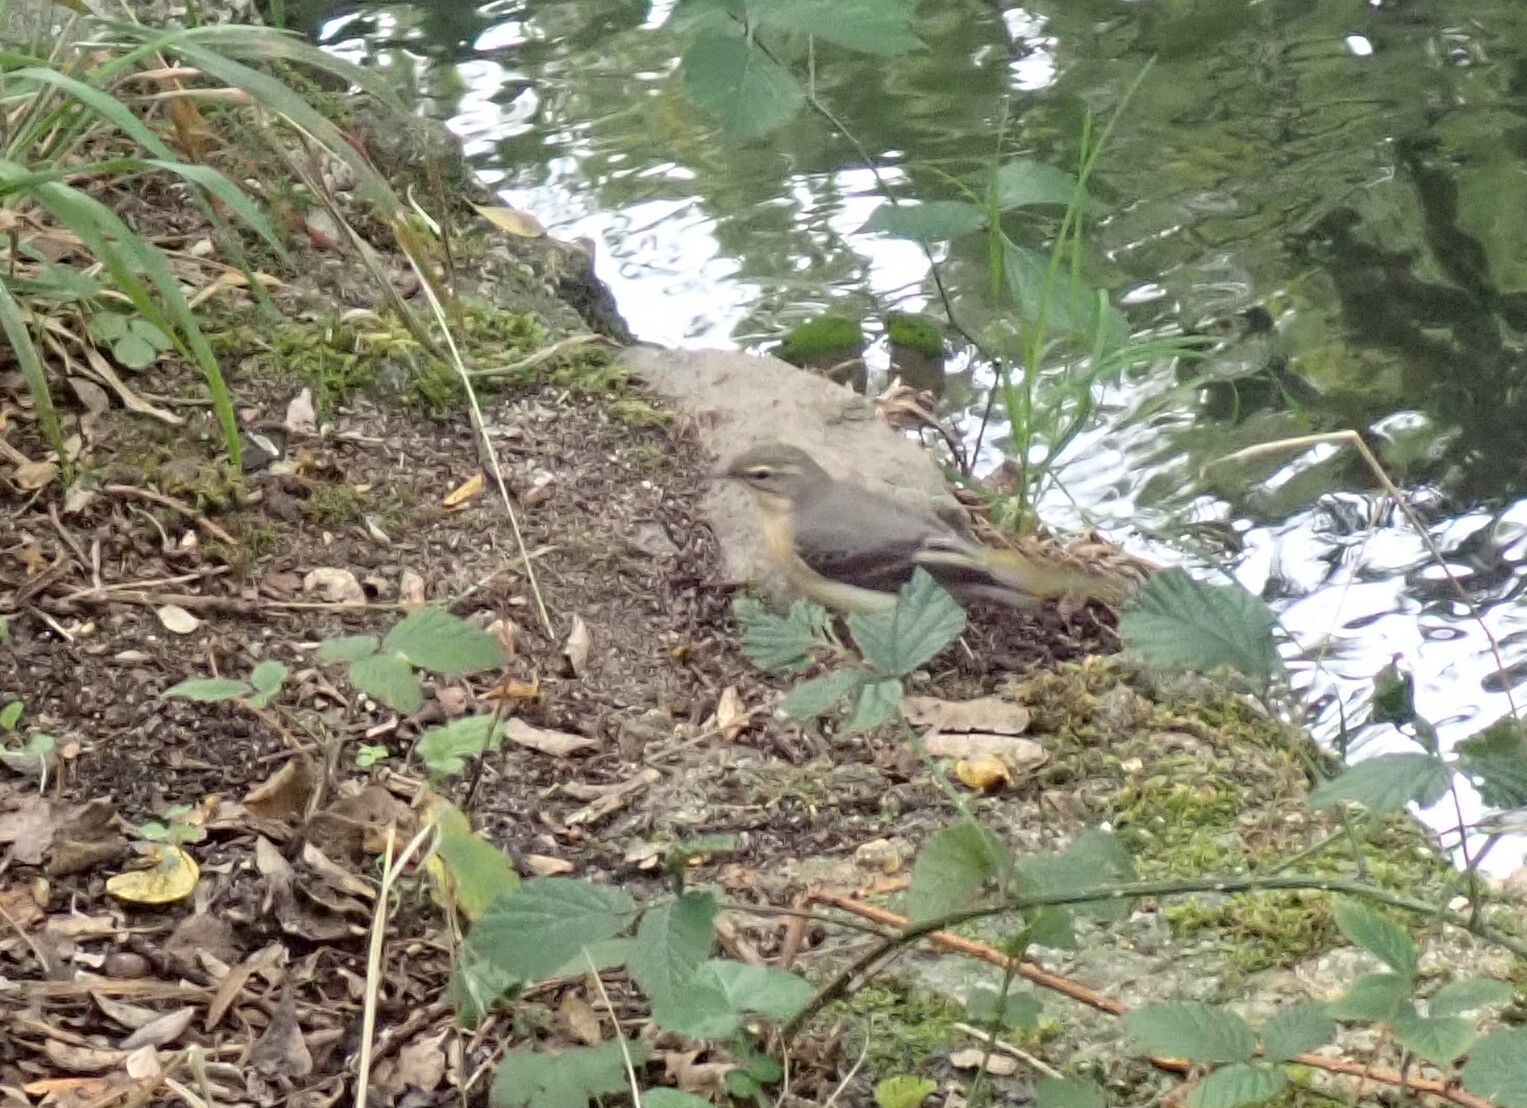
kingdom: Animalia
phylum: Chordata
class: Aves
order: Passeriformes
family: Motacillidae
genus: Motacilla
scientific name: Motacilla cinerea
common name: Grey wagtail
